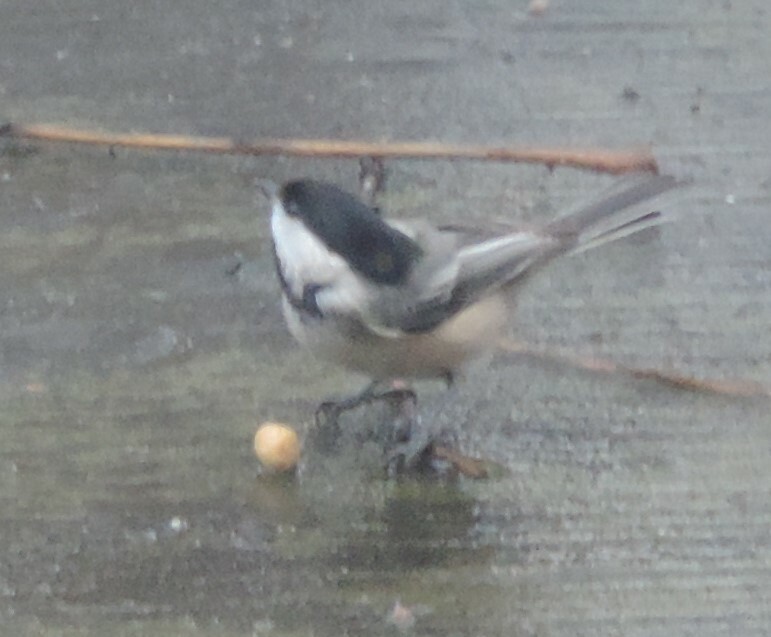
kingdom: Animalia
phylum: Chordata
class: Aves
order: Passeriformes
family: Paridae
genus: Poecile
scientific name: Poecile atricapillus
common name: Black-capped chickadee
